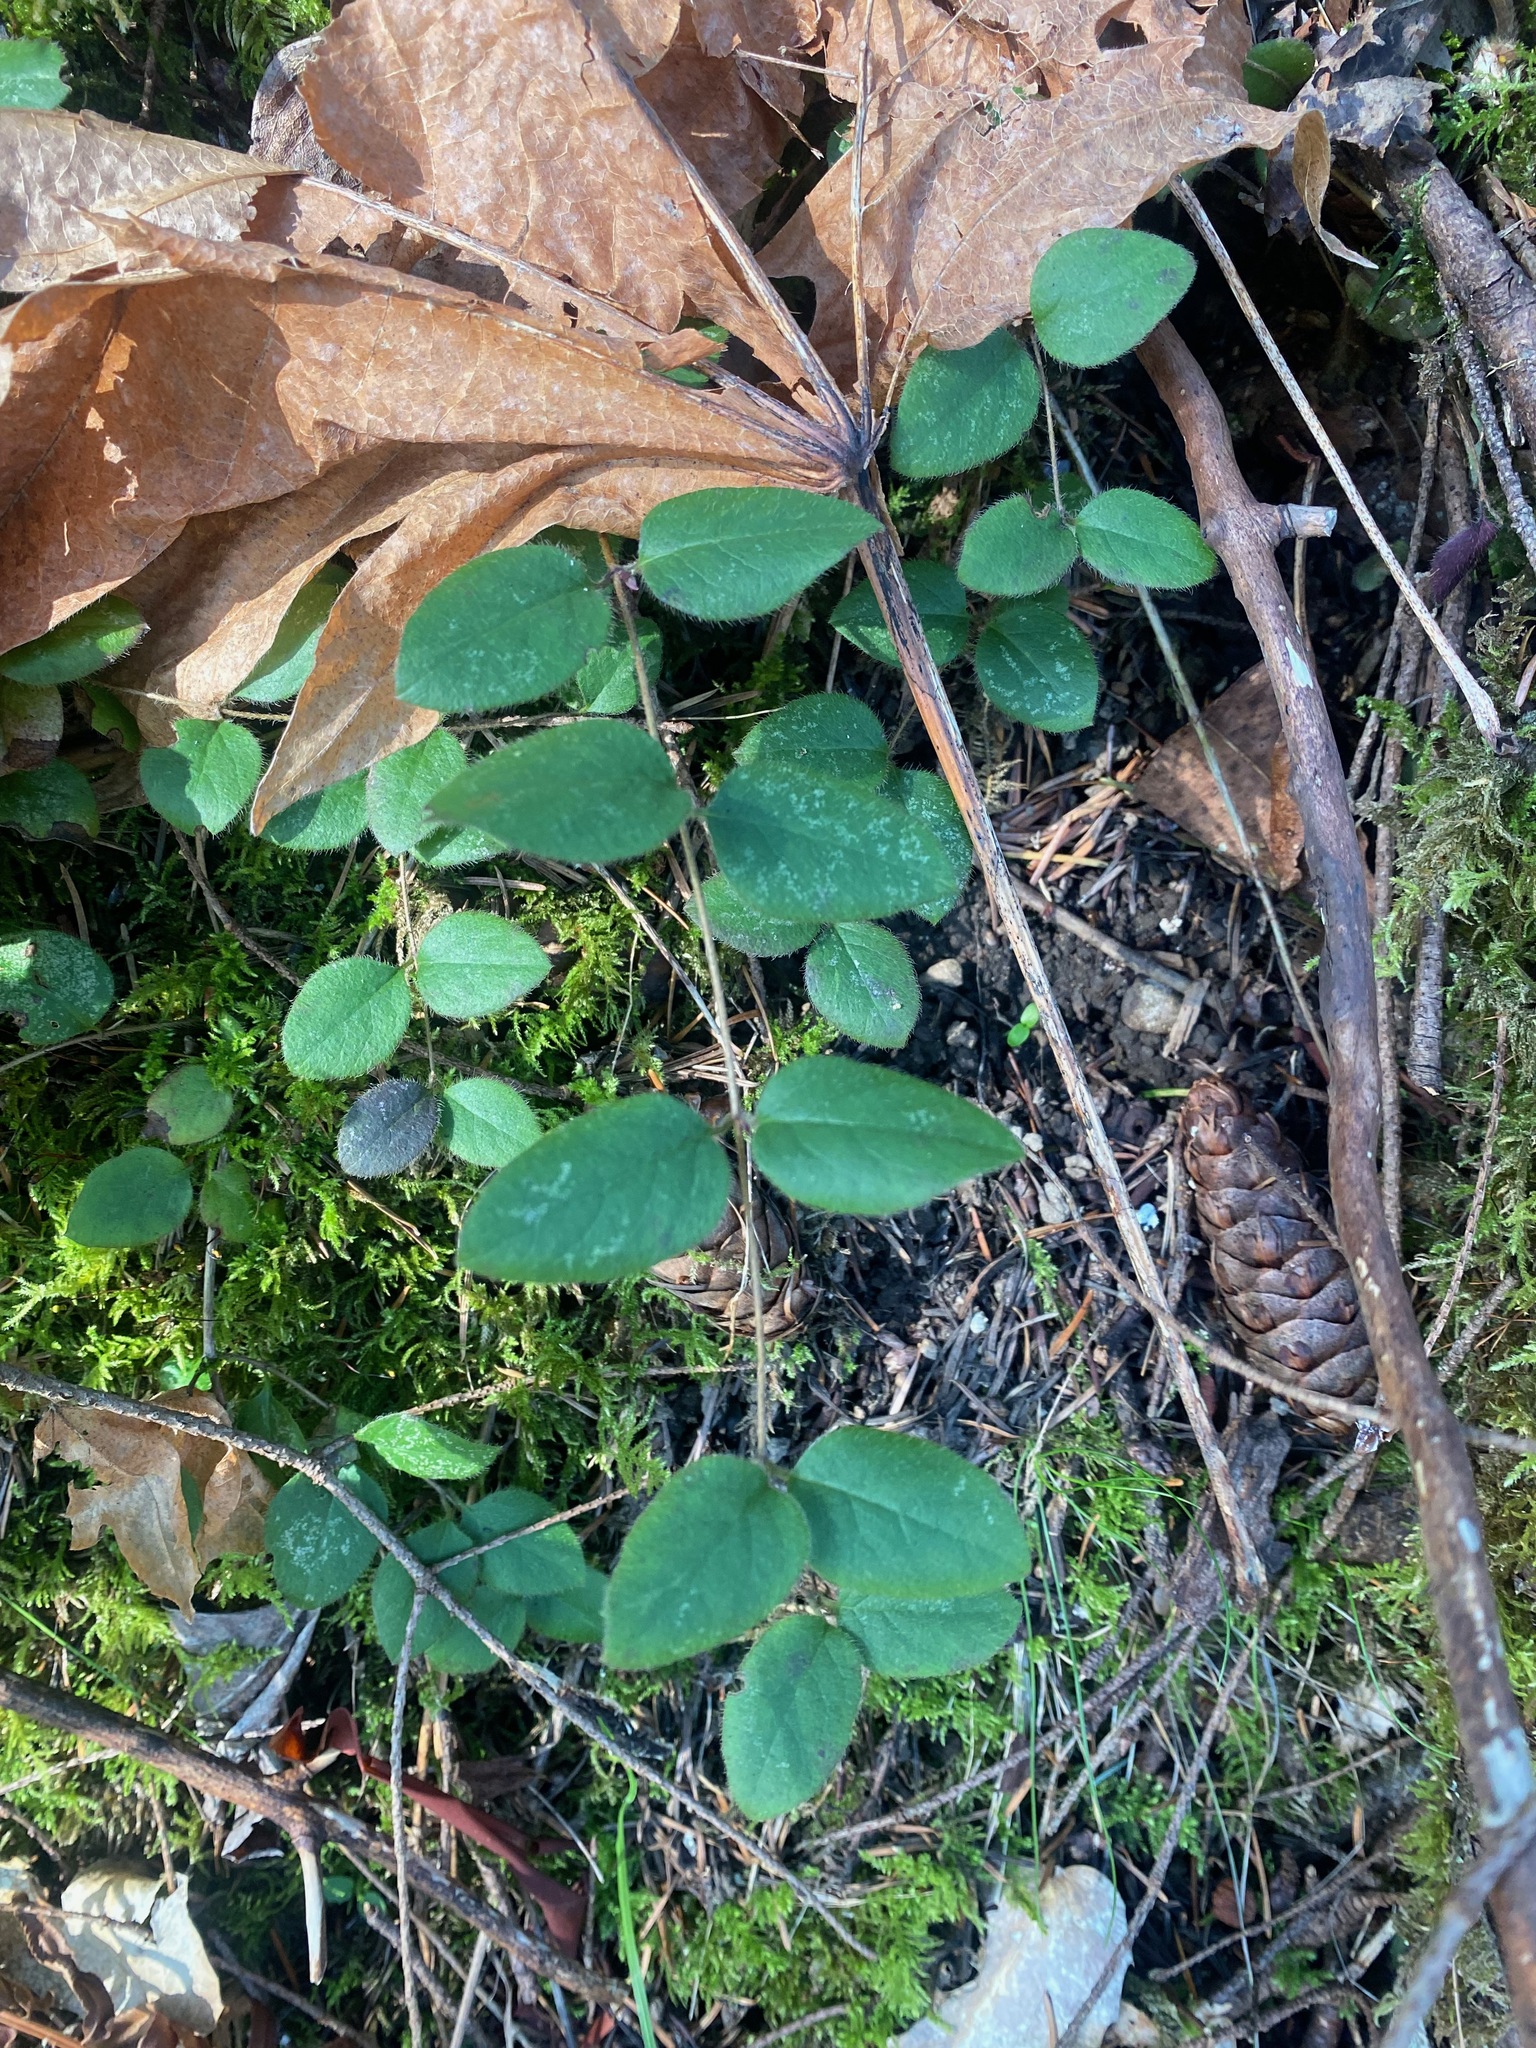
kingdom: Plantae
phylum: Tracheophyta
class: Magnoliopsida
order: Dipsacales
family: Caprifoliaceae
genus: Lonicera
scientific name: Lonicera hispidula
